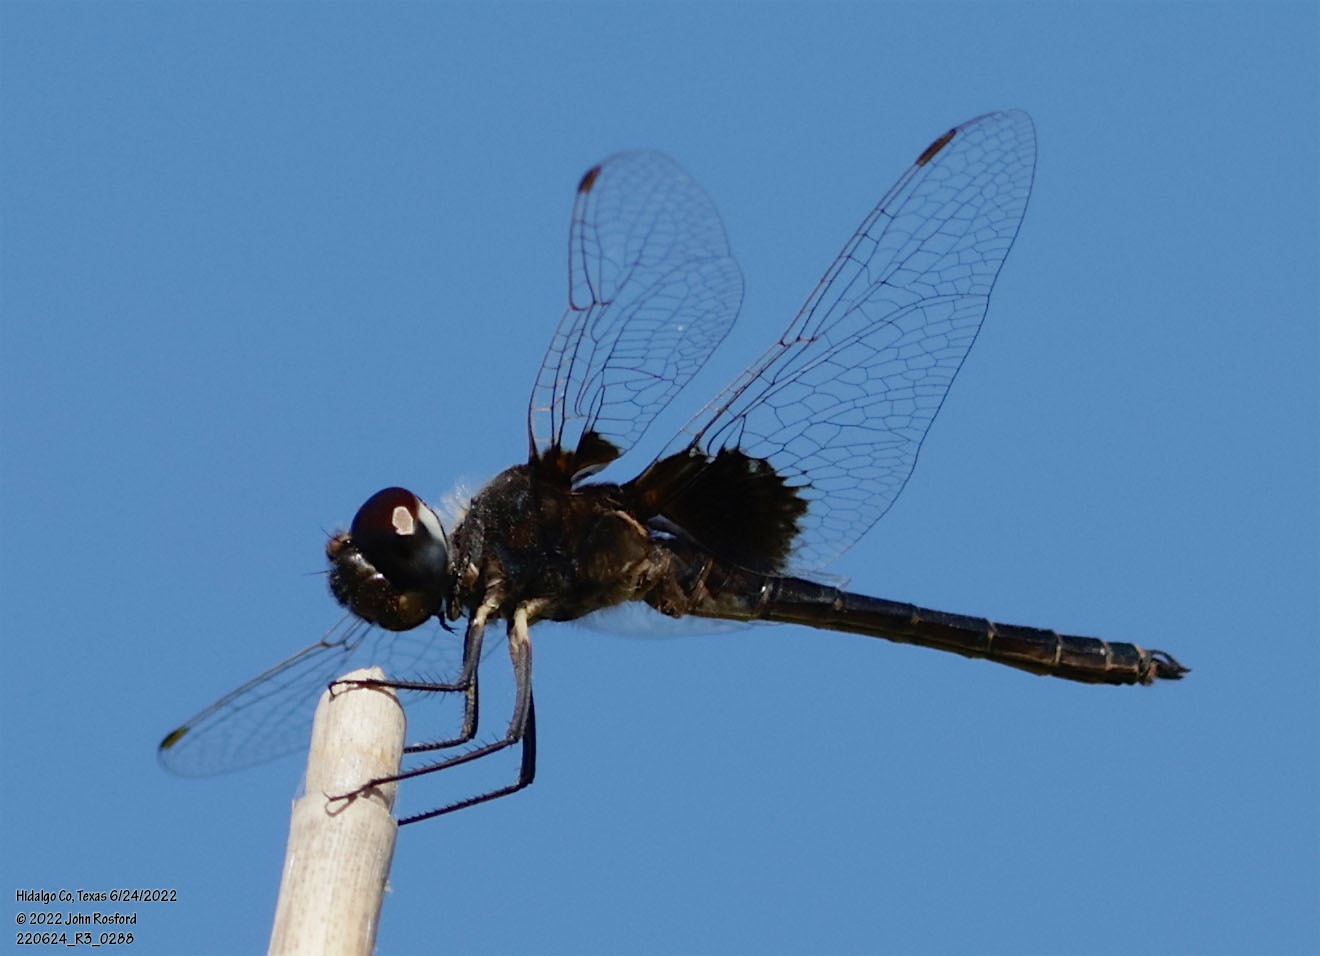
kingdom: Animalia
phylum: Arthropoda
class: Insecta
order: Odonata
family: Libellulidae
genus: Macrodiplax
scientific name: Macrodiplax balteata
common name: Marl pennant
